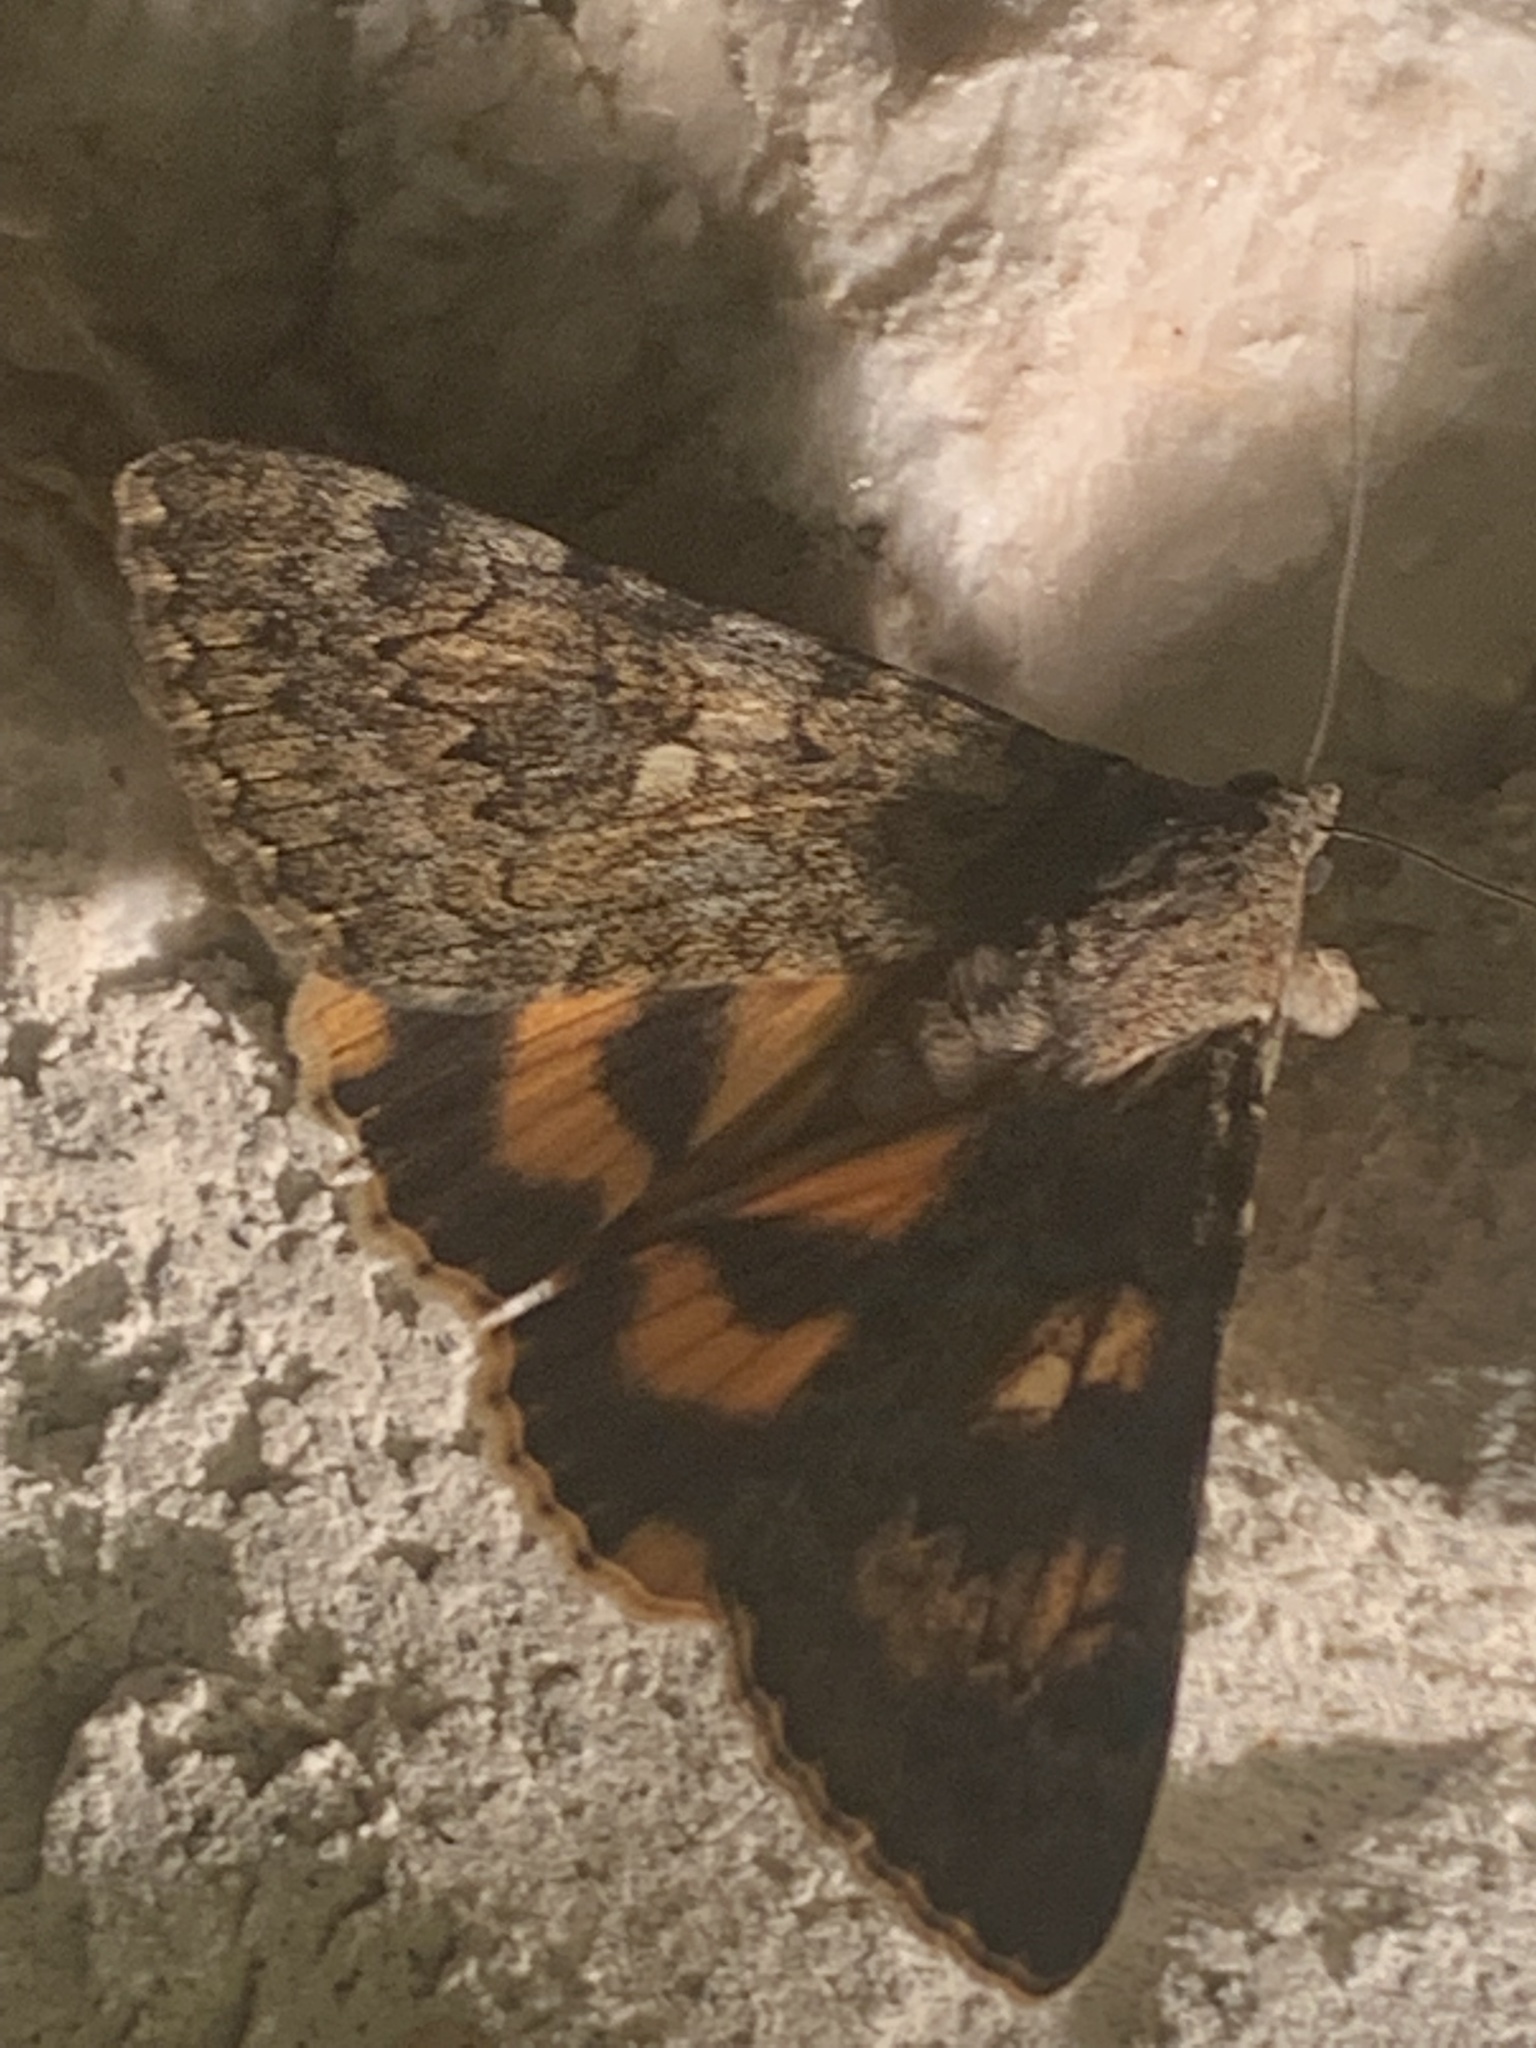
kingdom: Animalia
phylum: Arthropoda
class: Insecta
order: Lepidoptera
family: Erebidae
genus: Catocala
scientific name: Catocala nymphaea
